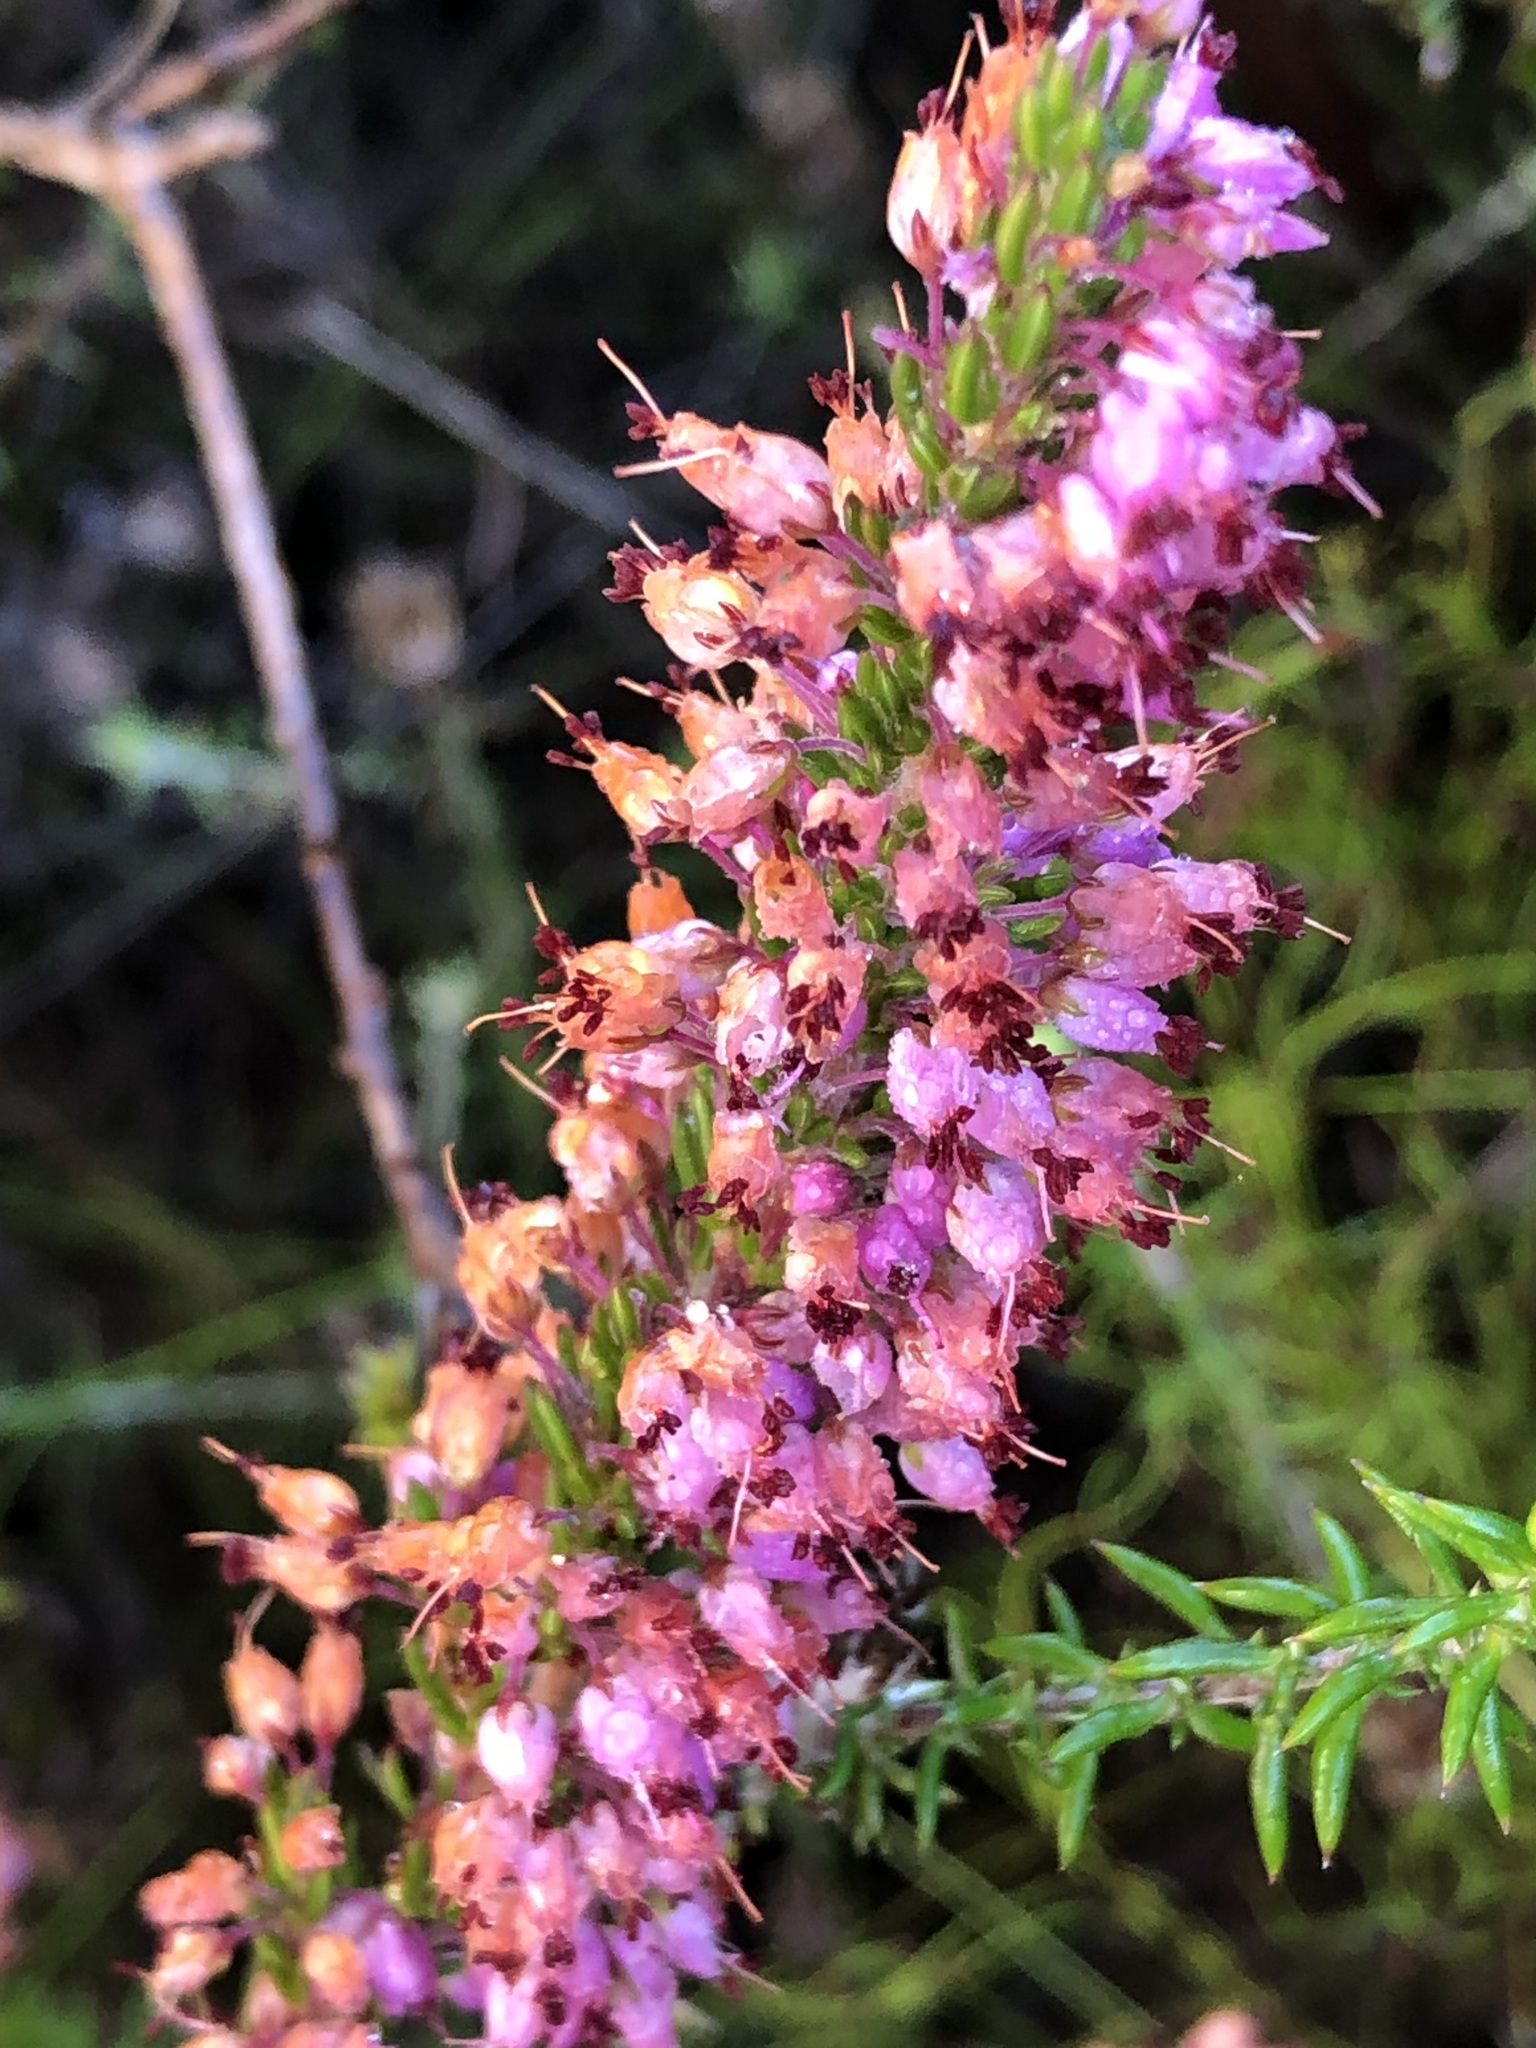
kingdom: Plantae
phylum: Tracheophyta
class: Magnoliopsida
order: Ericales
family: Ericaceae
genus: Erica
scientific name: Erica nudiflora
